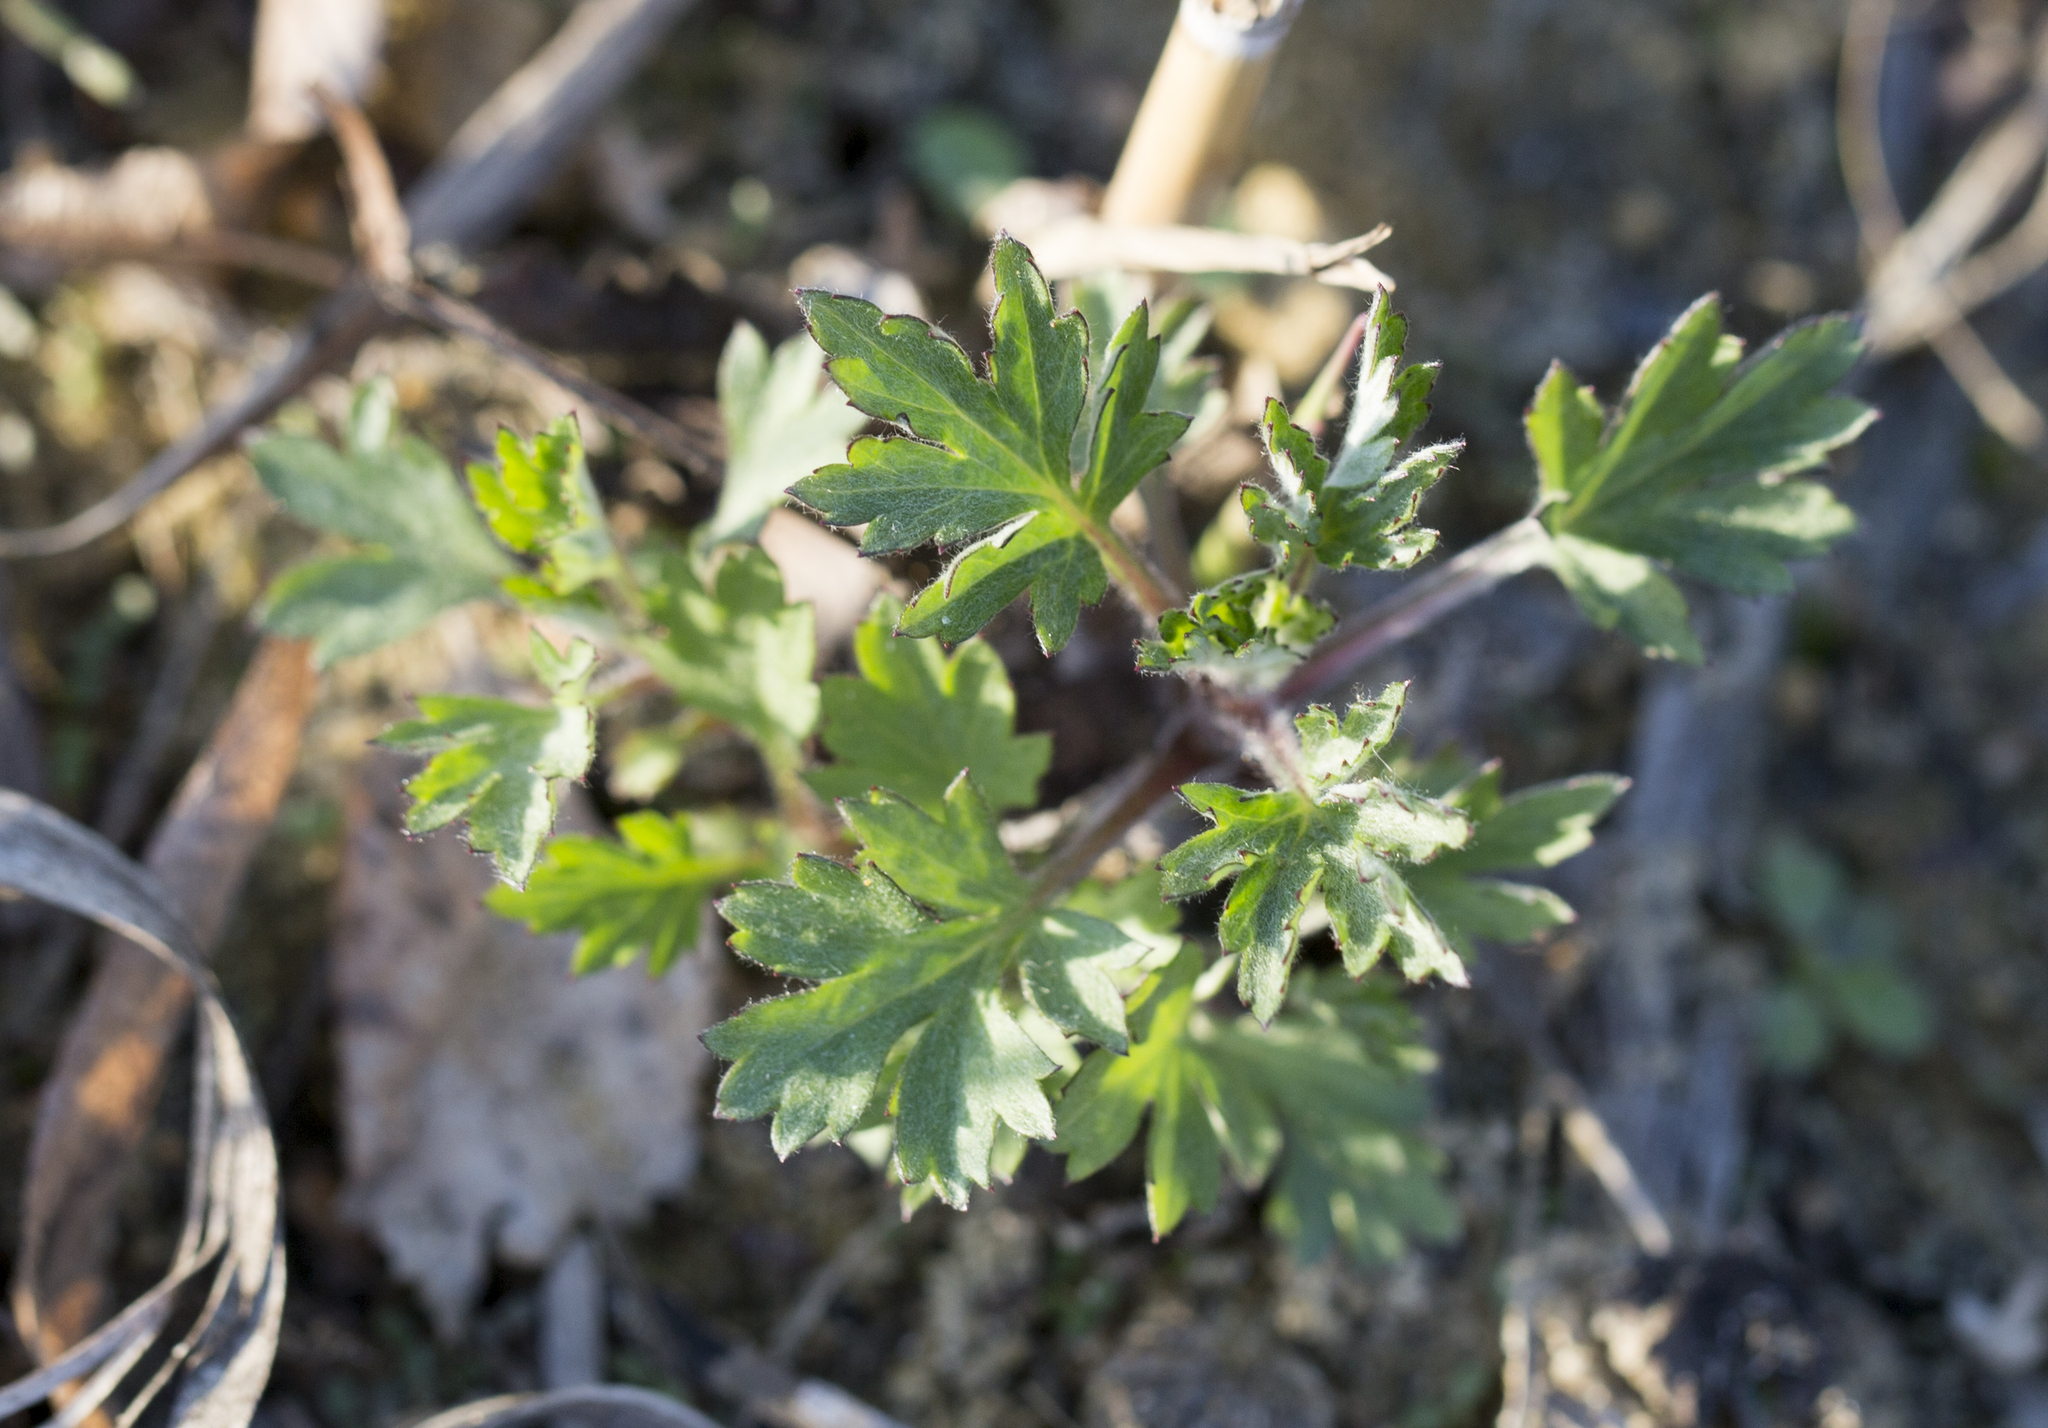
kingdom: Plantae
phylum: Tracheophyta
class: Magnoliopsida
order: Asterales
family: Asteraceae
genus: Artemisia
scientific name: Artemisia vulgaris
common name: Mugwort
